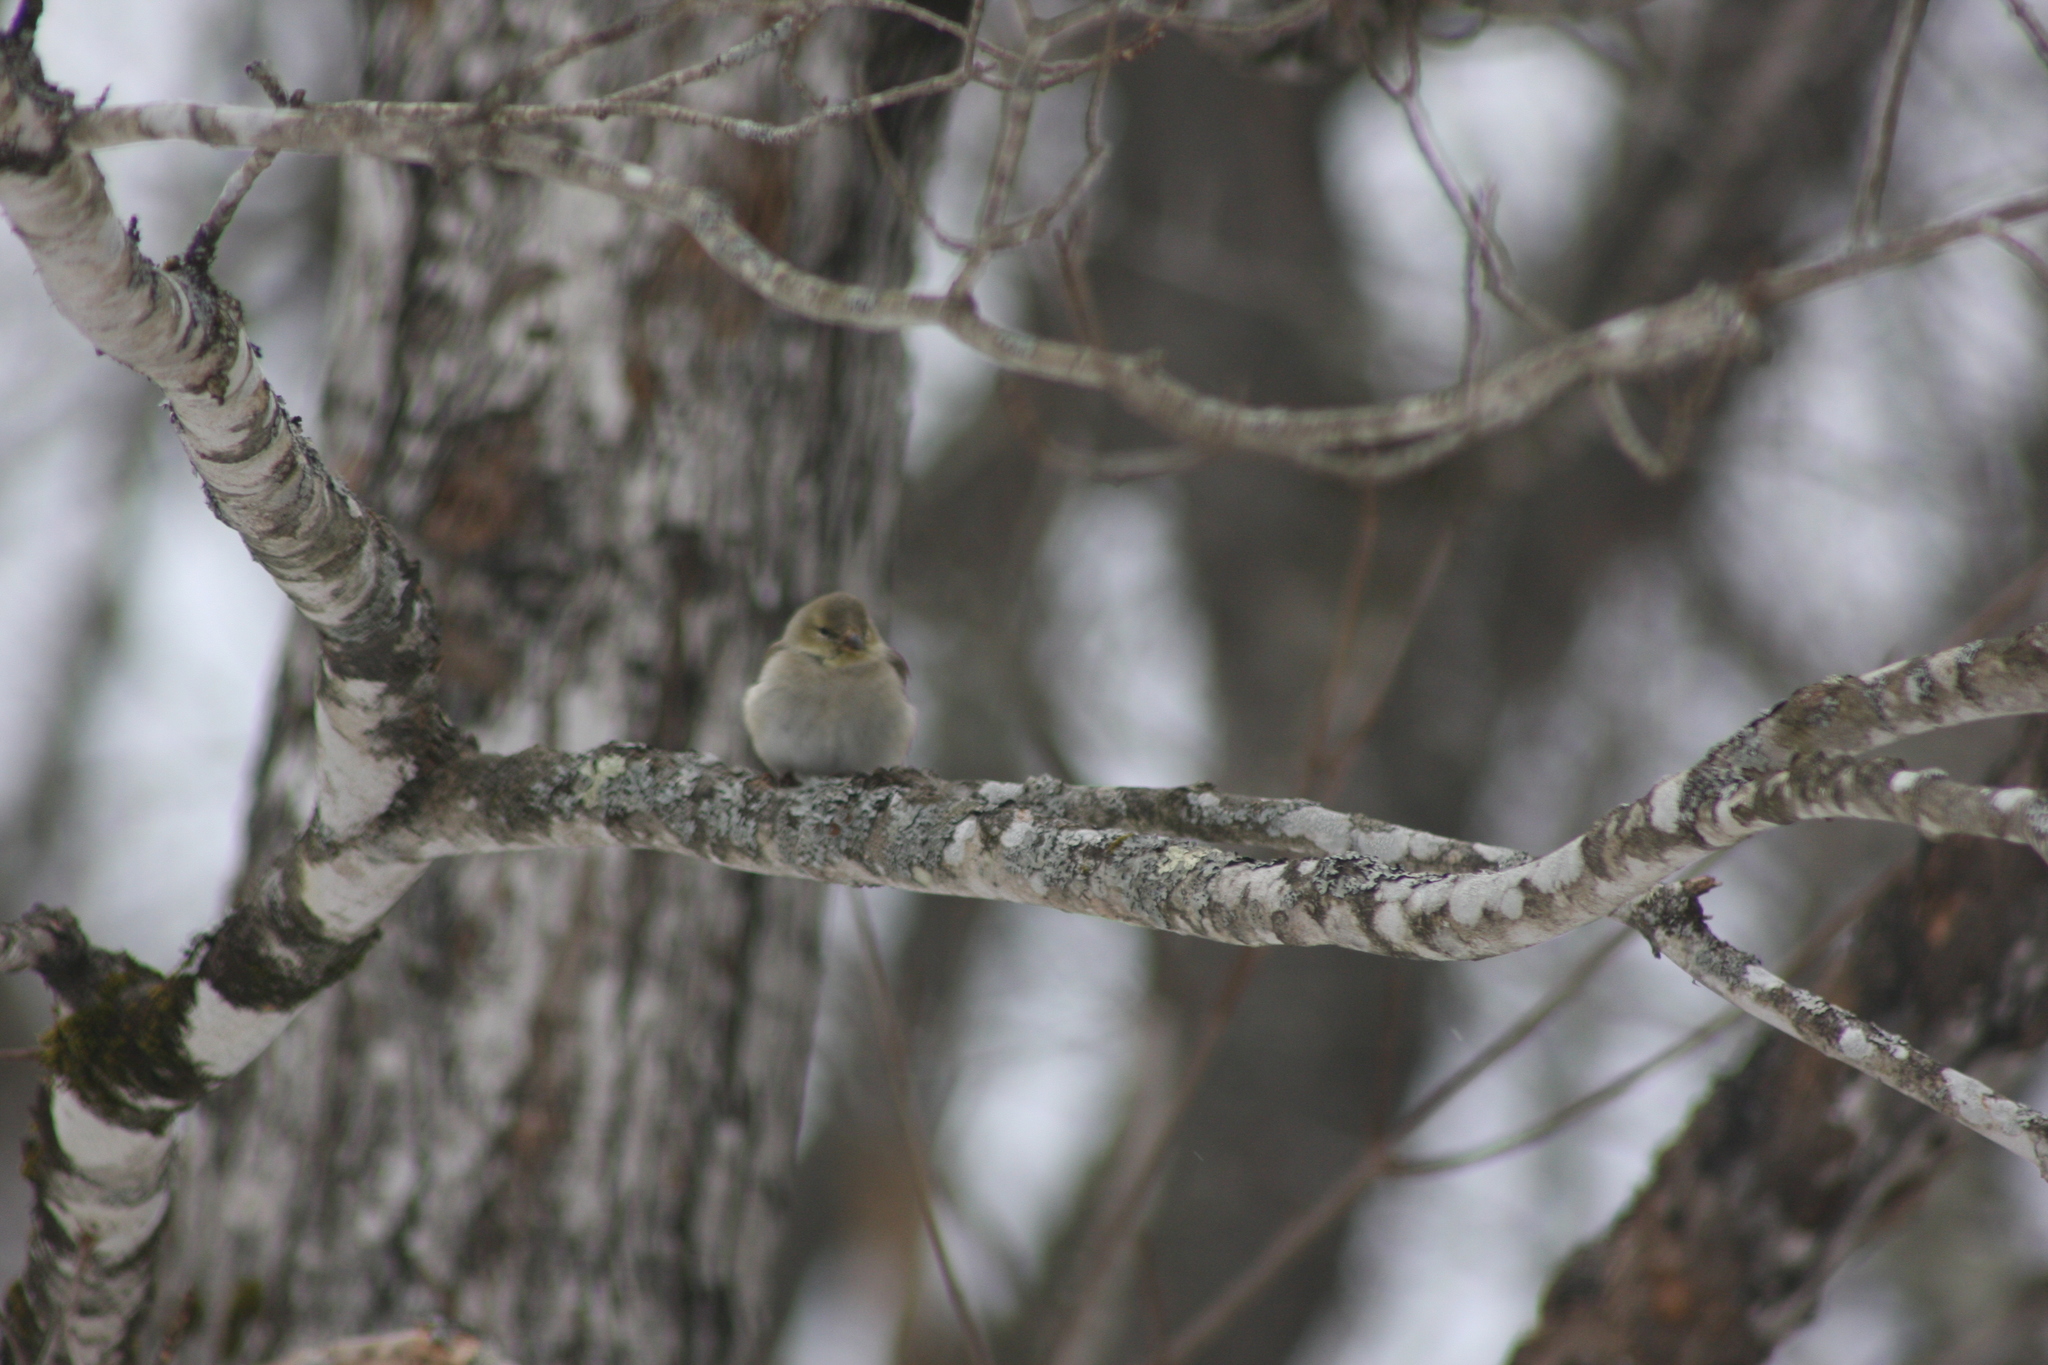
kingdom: Animalia
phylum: Chordata
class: Aves
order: Passeriformes
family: Fringillidae
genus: Spinus
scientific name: Spinus tristis
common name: American goldfinch
